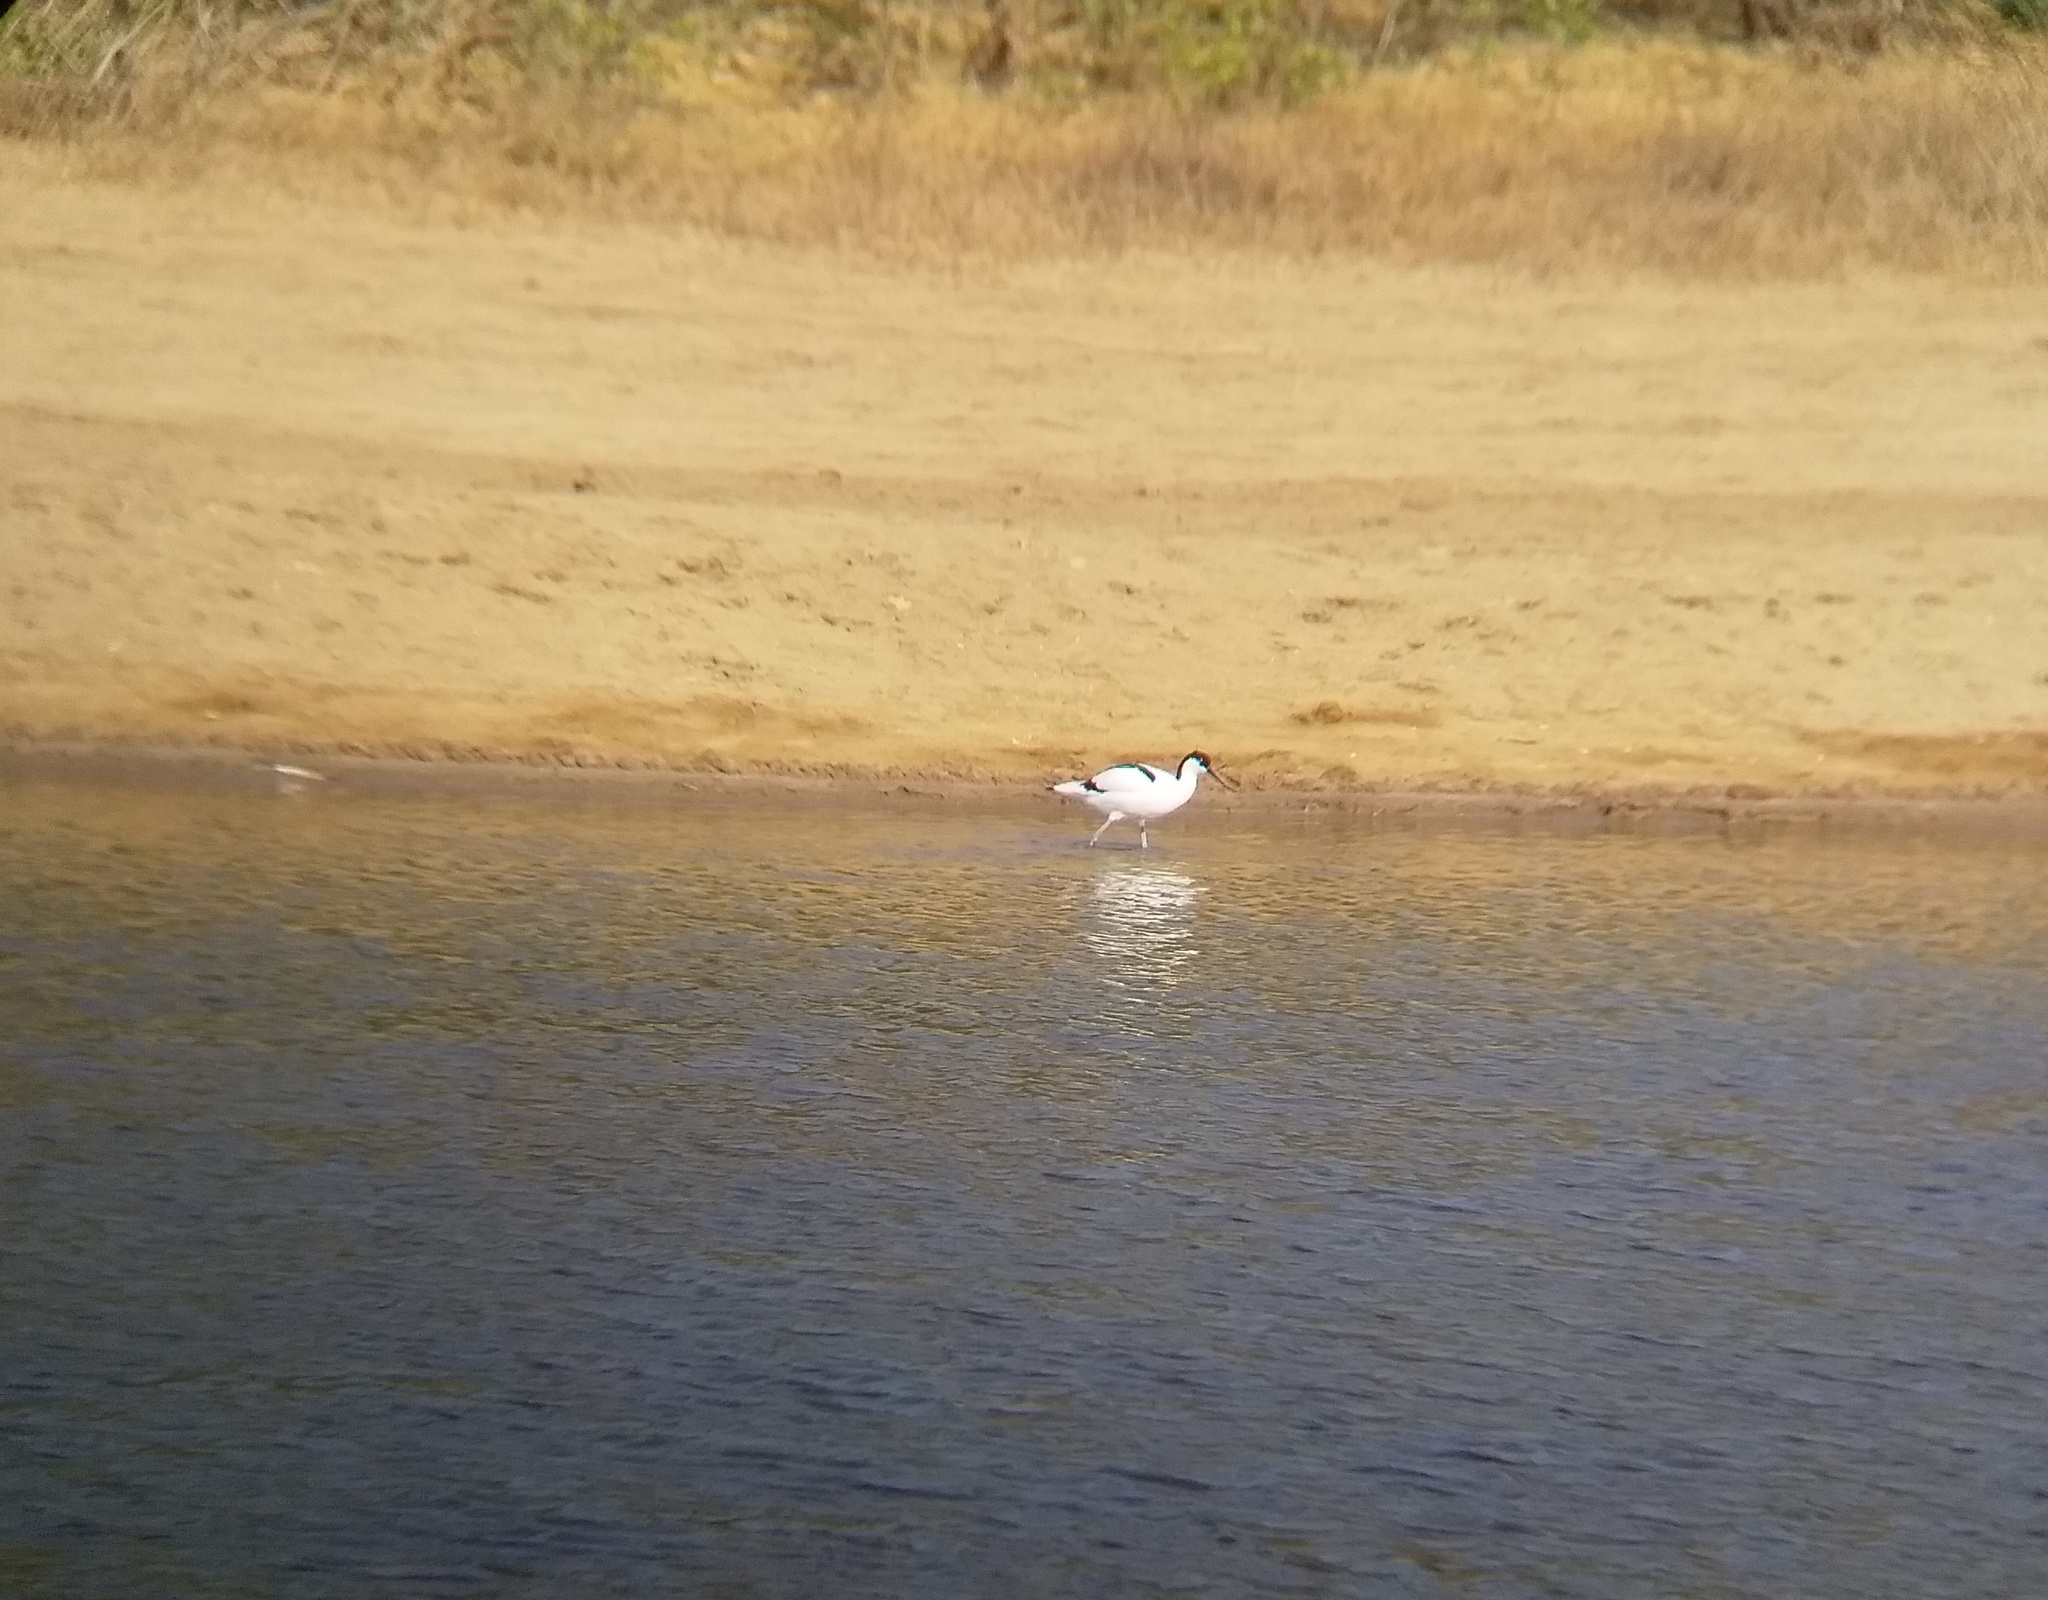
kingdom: Animalia
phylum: Chordata
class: Aves
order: Charadriiformes
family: Recurvirostridae
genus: Recurvirostra
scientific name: Recurvirostra avosetta
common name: Pied avocet
